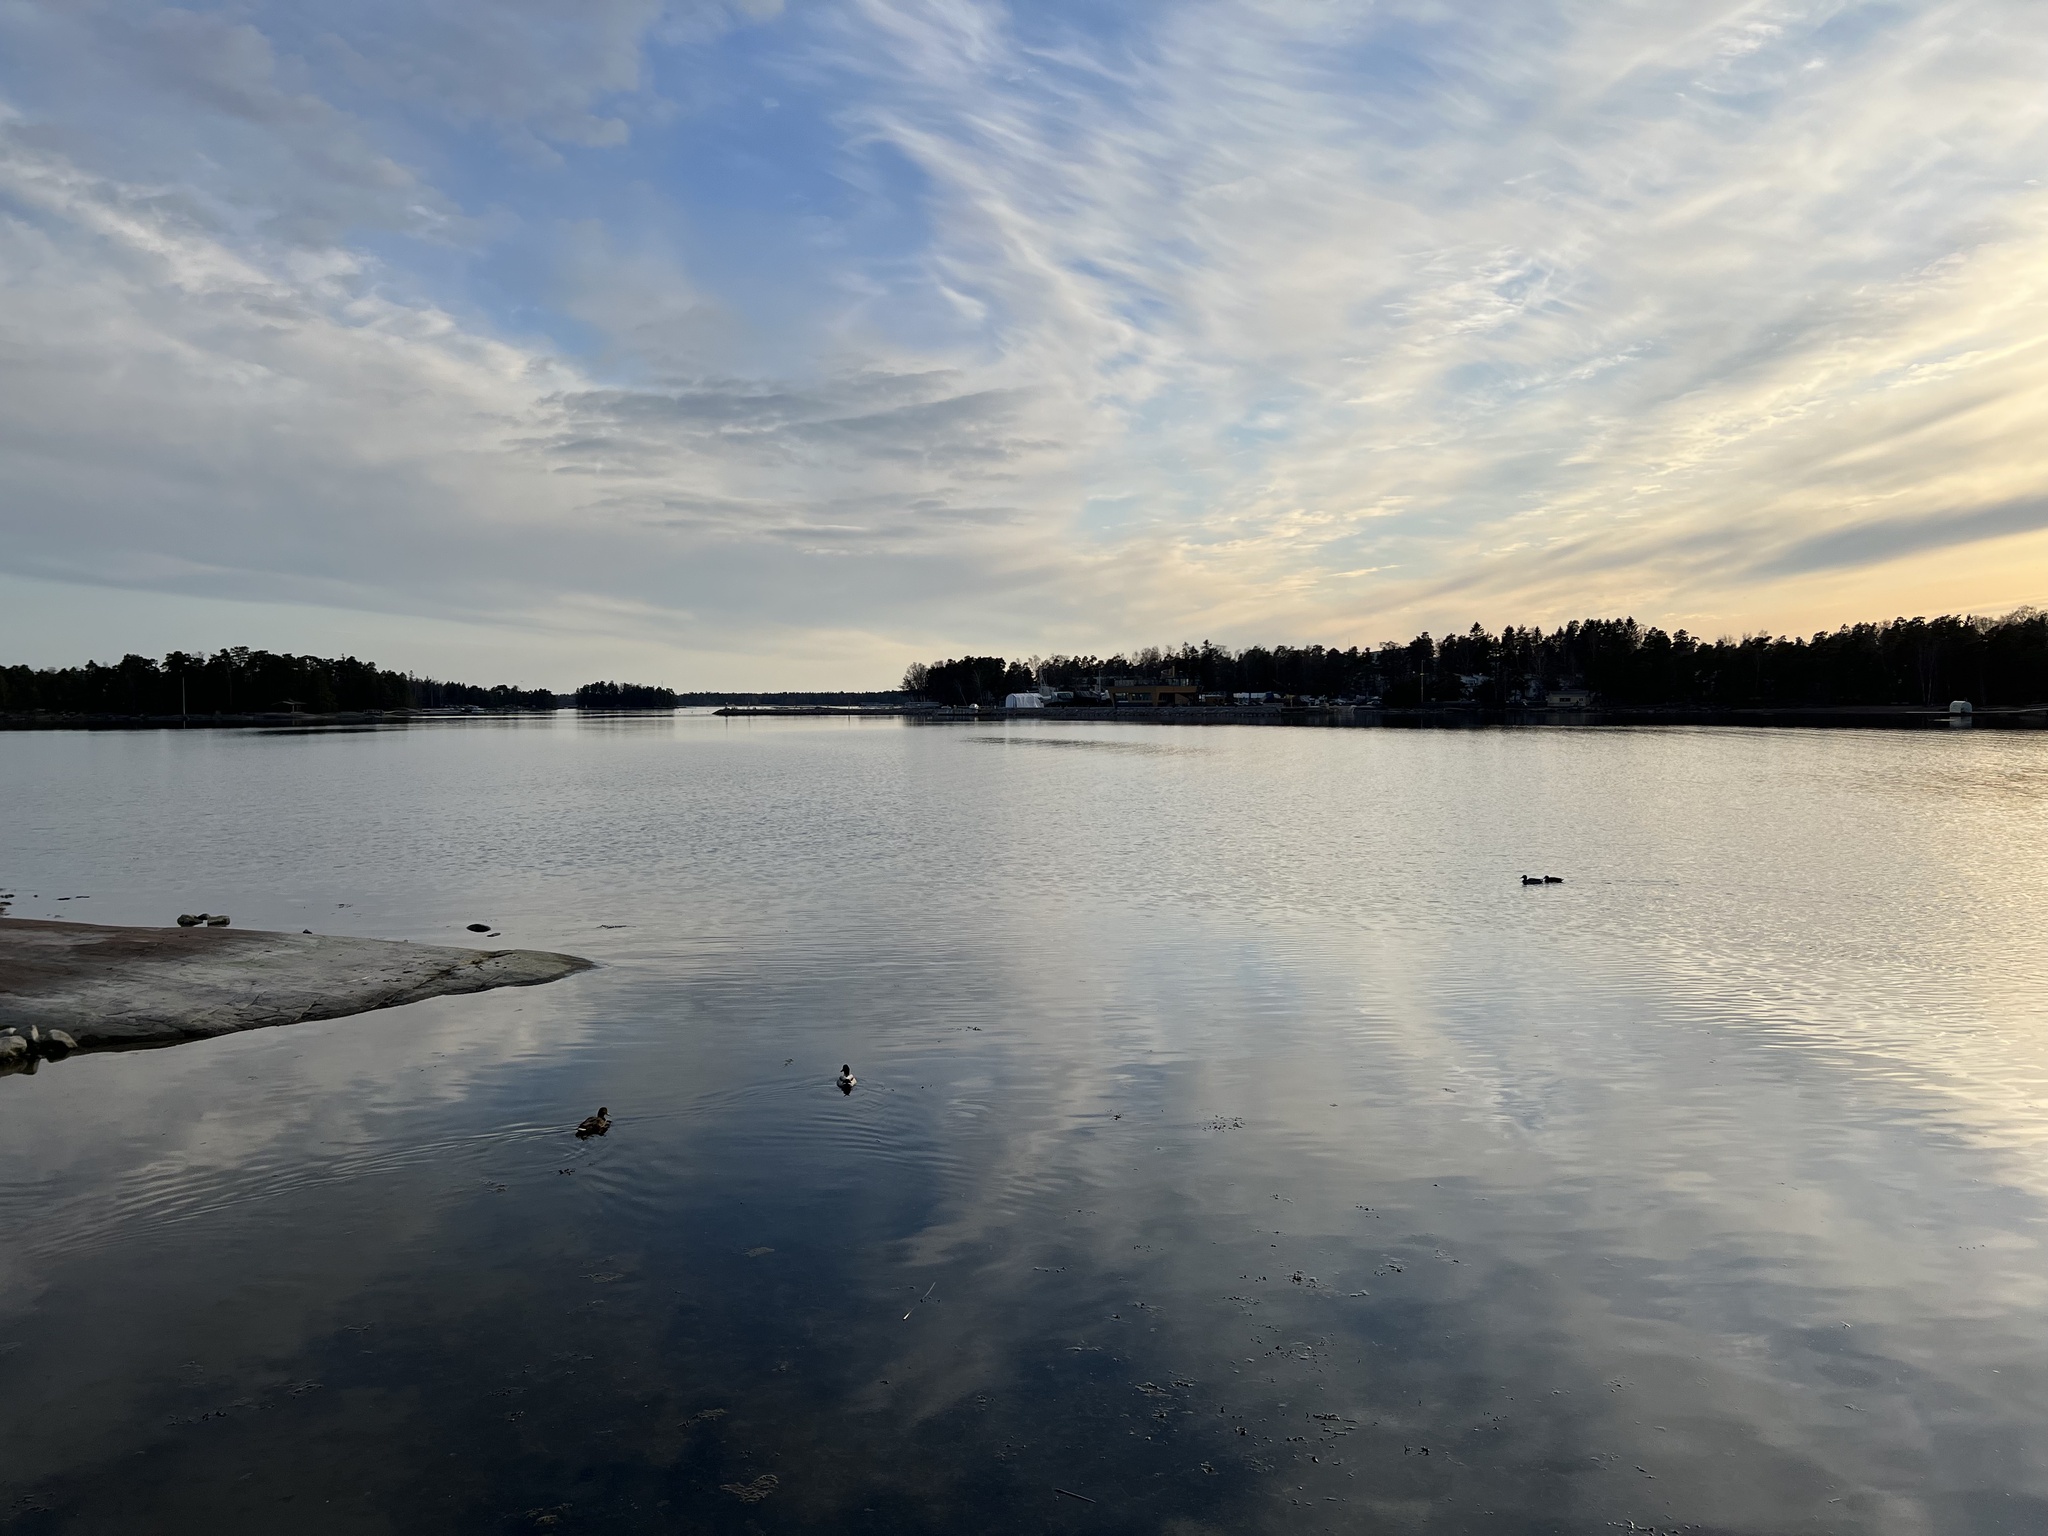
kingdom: Animalia
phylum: Chordata
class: Aves
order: Anseriformes
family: Anatidae
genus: Anas
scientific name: Anas platyrhynchos
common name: Mallard
